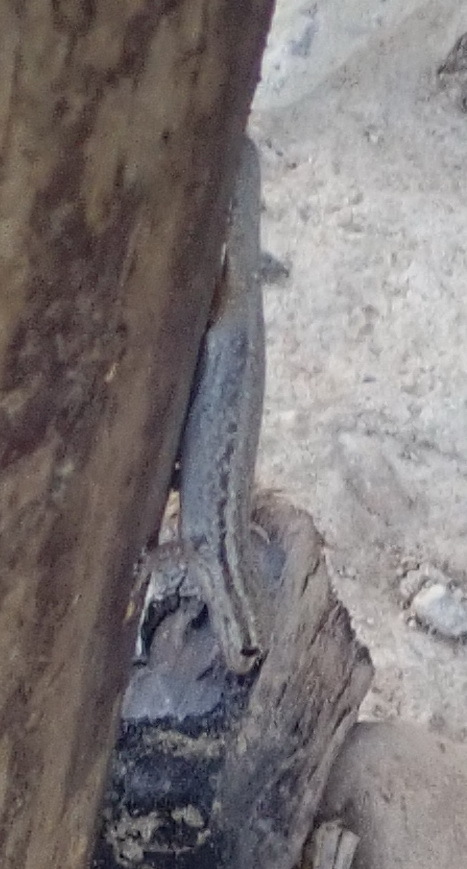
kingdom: Animalia
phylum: Chordata
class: Squamata
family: Gekkonidae
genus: Lygodactylus
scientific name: Lygodactylus capensis
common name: Cape dwarf gecko
